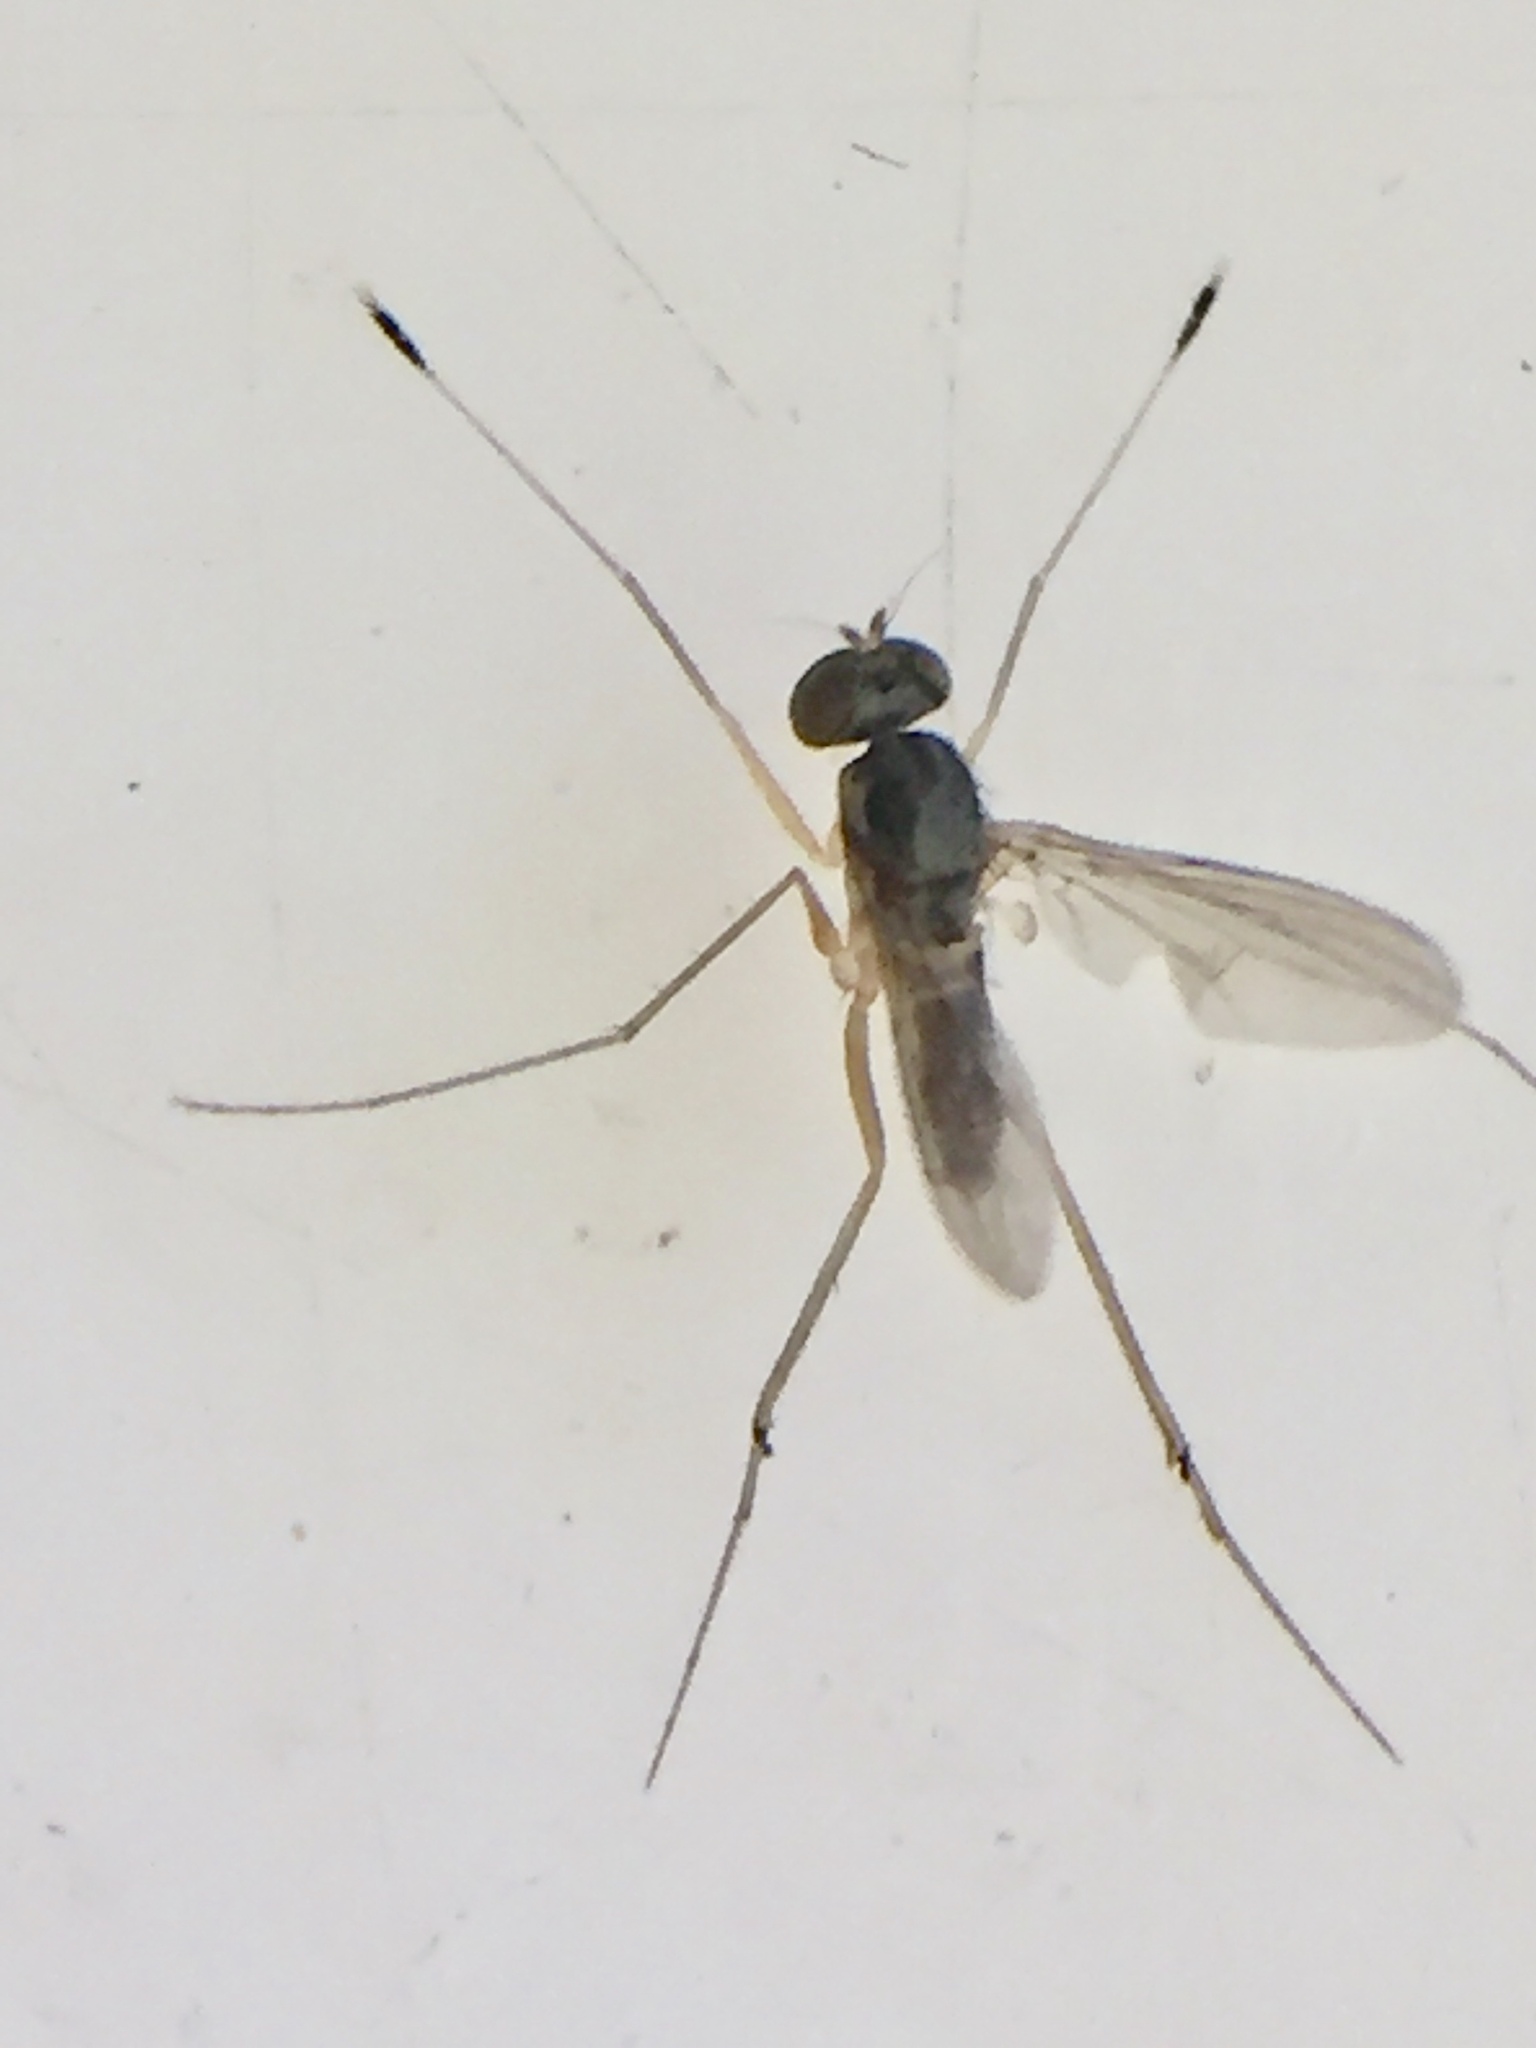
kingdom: Animalia
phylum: Arthropoda
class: Insecta
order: Diptera
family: Dolichopodidae
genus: Arachnomyia
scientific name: Arachnomyia
